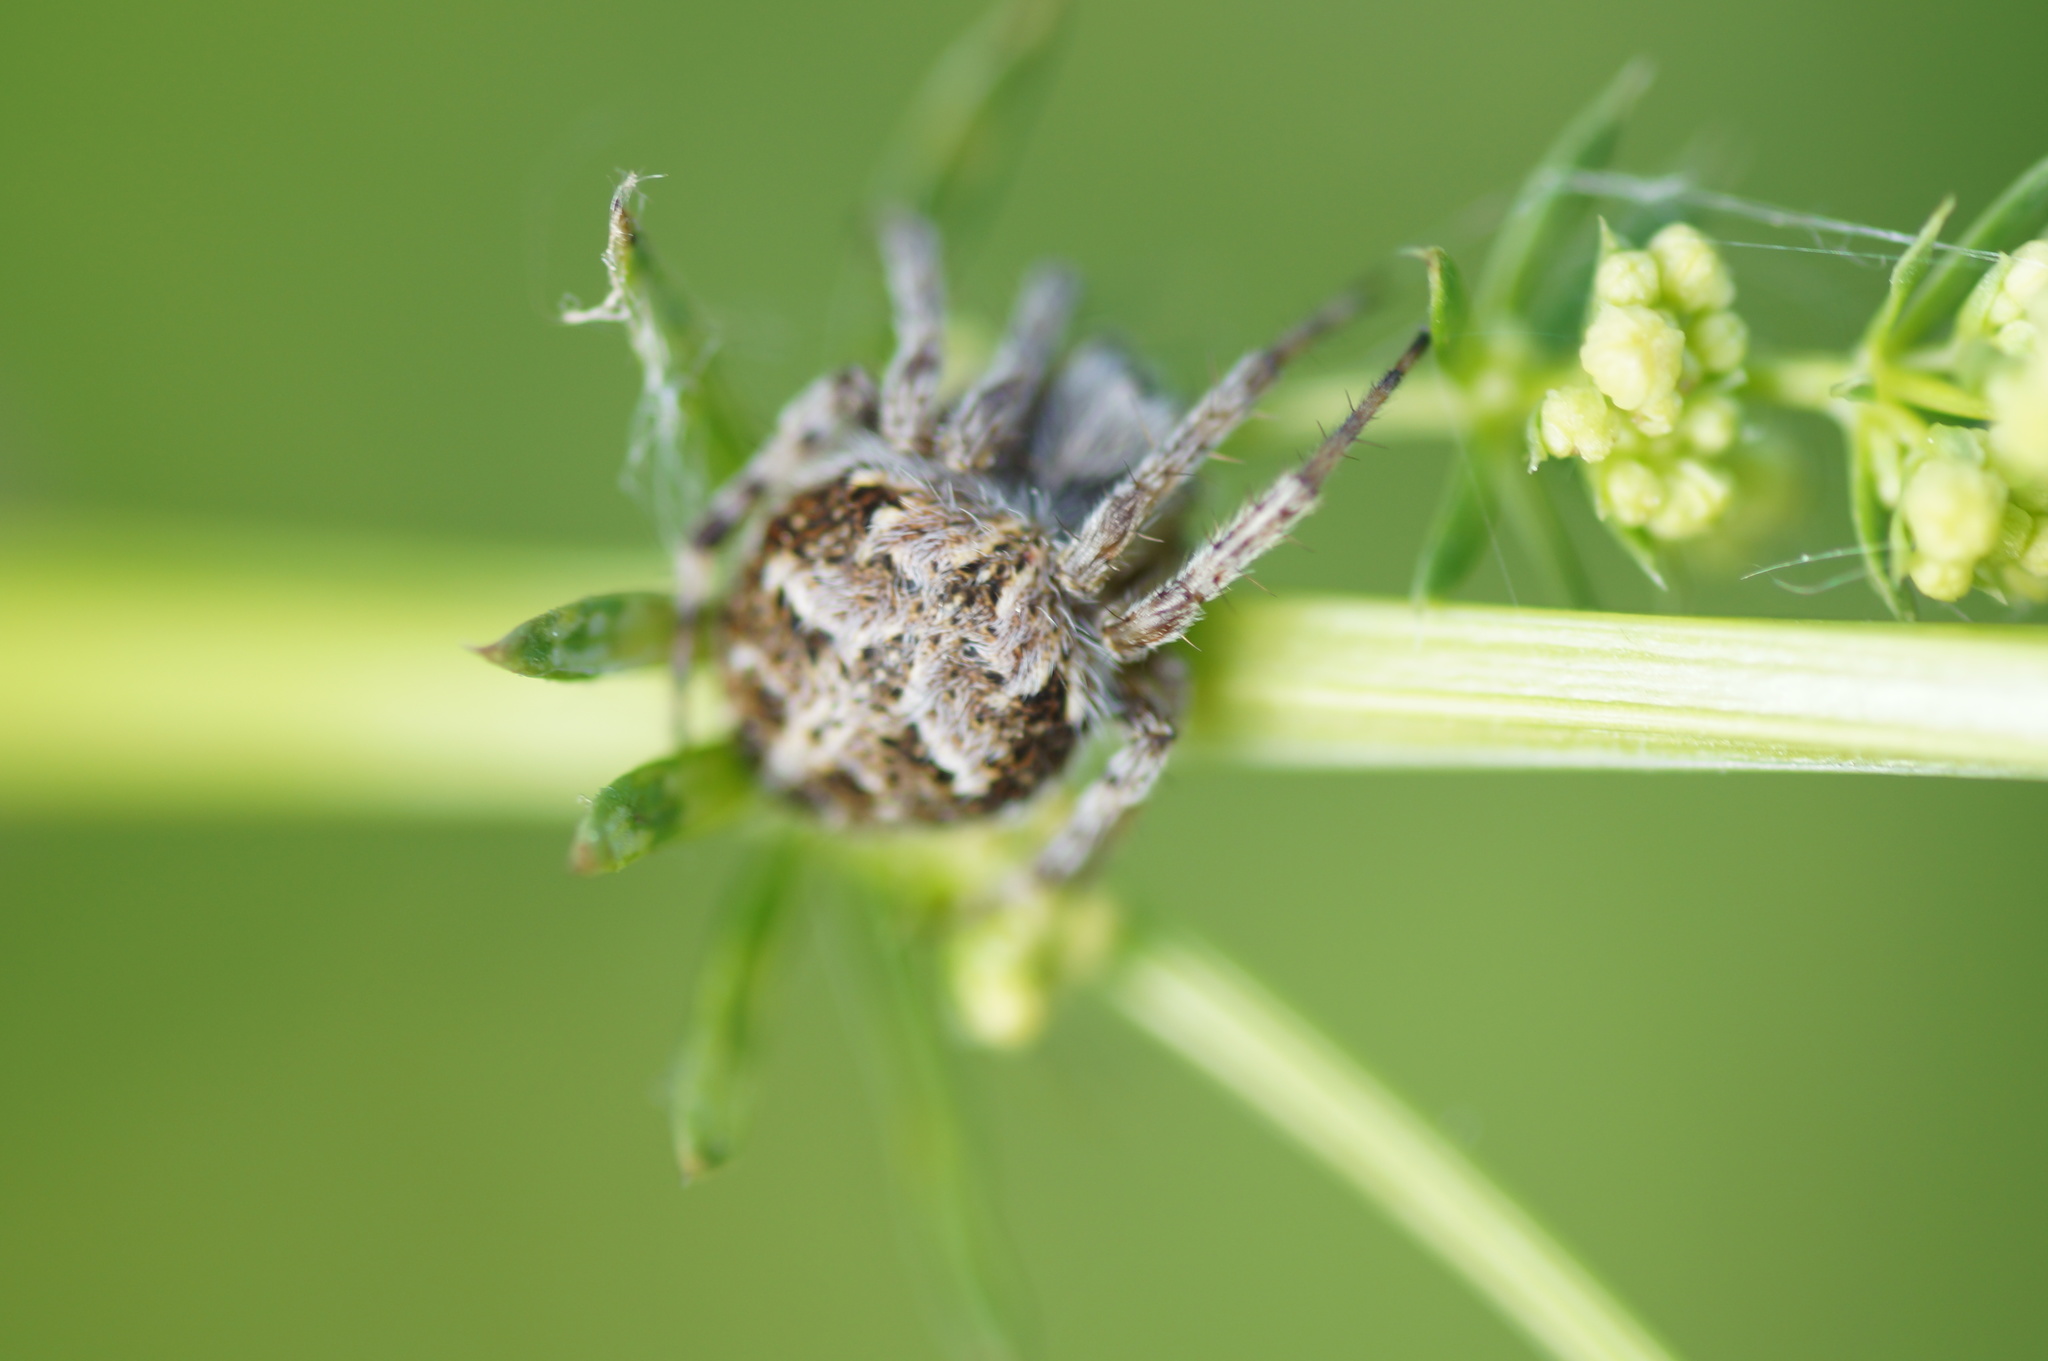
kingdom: Animalia
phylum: Arthropoda
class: Arachnida
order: Araneae
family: Araneidae
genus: Agalenatea
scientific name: Agalenatea redii
